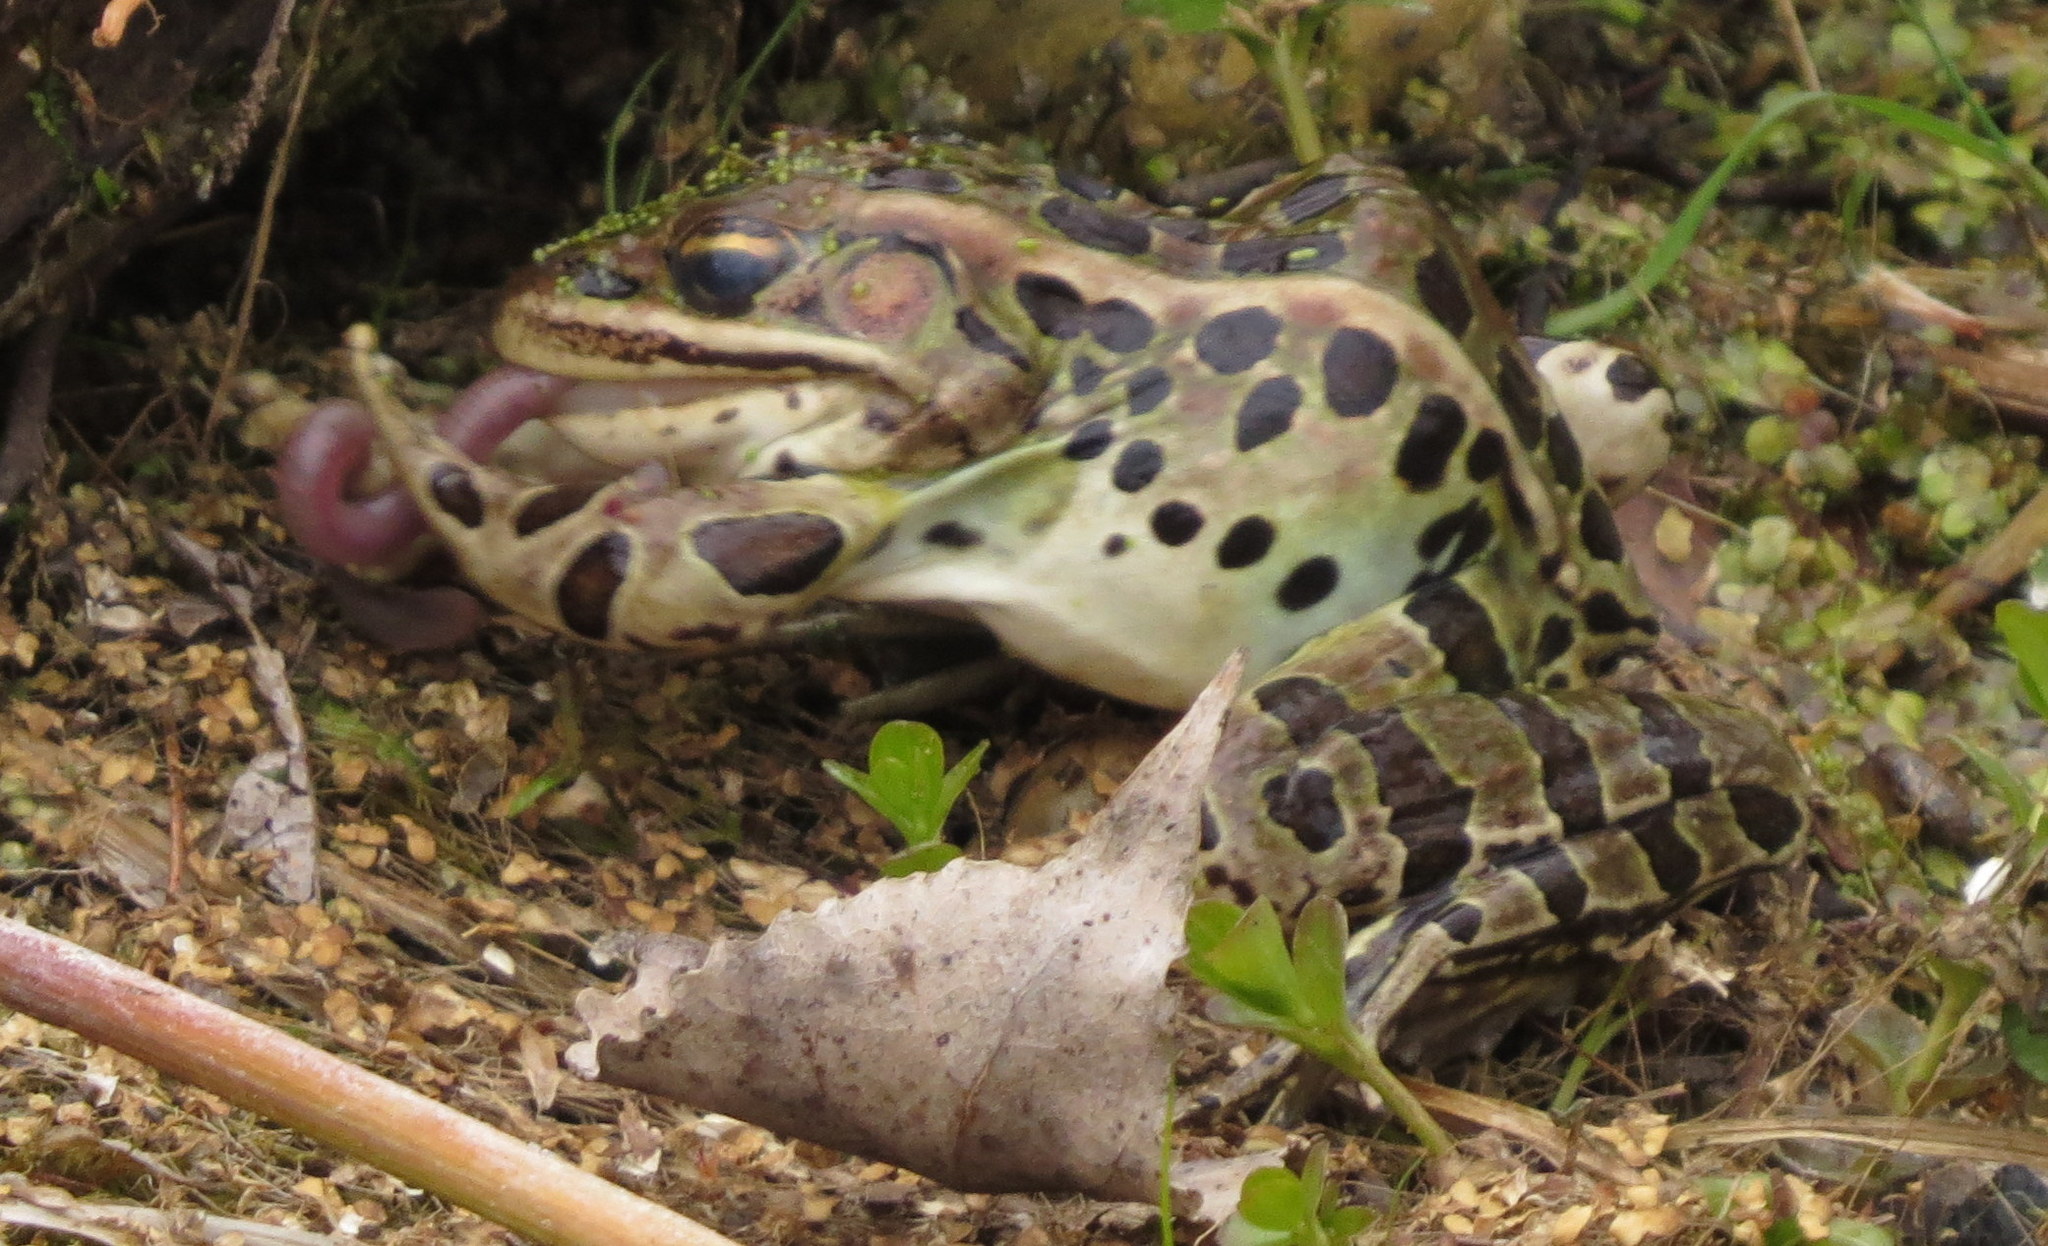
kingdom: Animalia
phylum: Chordata
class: Amphibia
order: Anura
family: Ranidae
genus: Lithobates
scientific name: Lithobates pipiens
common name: Northern leopard frog
